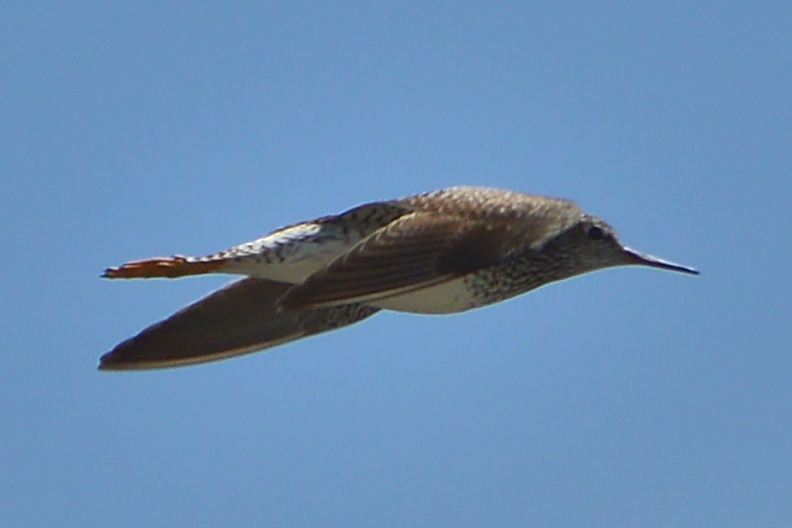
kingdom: Animalia
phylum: Chordata
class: Aves
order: Charadriiformes
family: Scolopacidae
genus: Tringa
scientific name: Tringa flavipes
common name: Lesser yellowlegs
